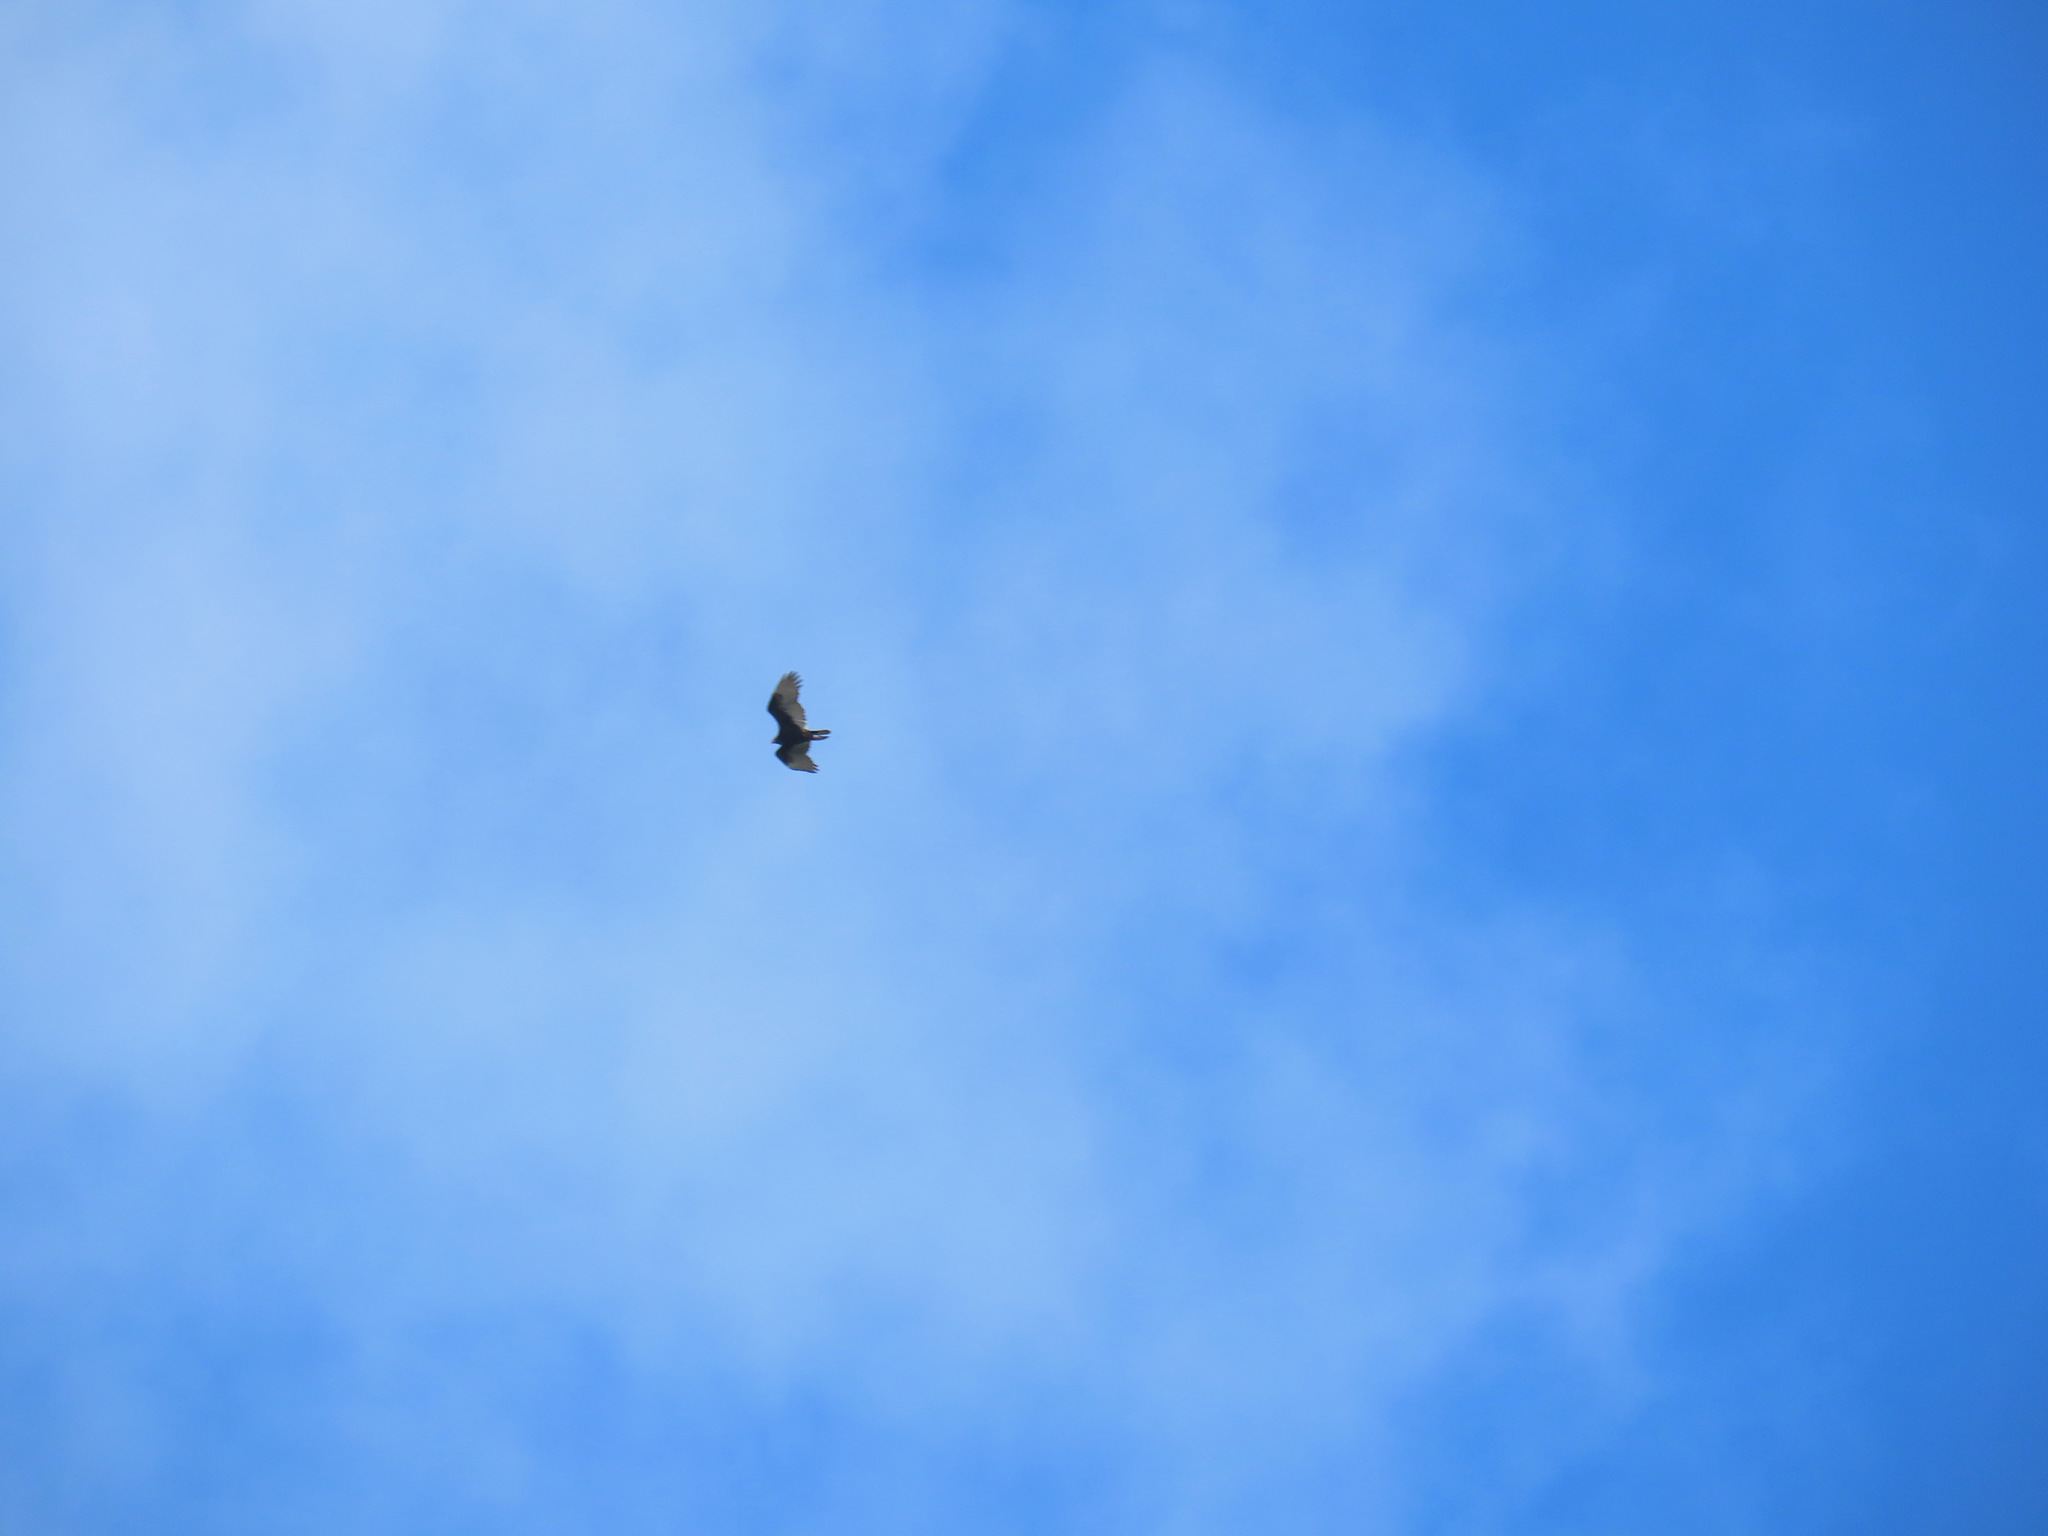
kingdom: Animalia
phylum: Chordata
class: Aves
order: Accipitriformes
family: Cathartidae
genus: Cathartes
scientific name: Cathartes aura
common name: Turkey vulture
